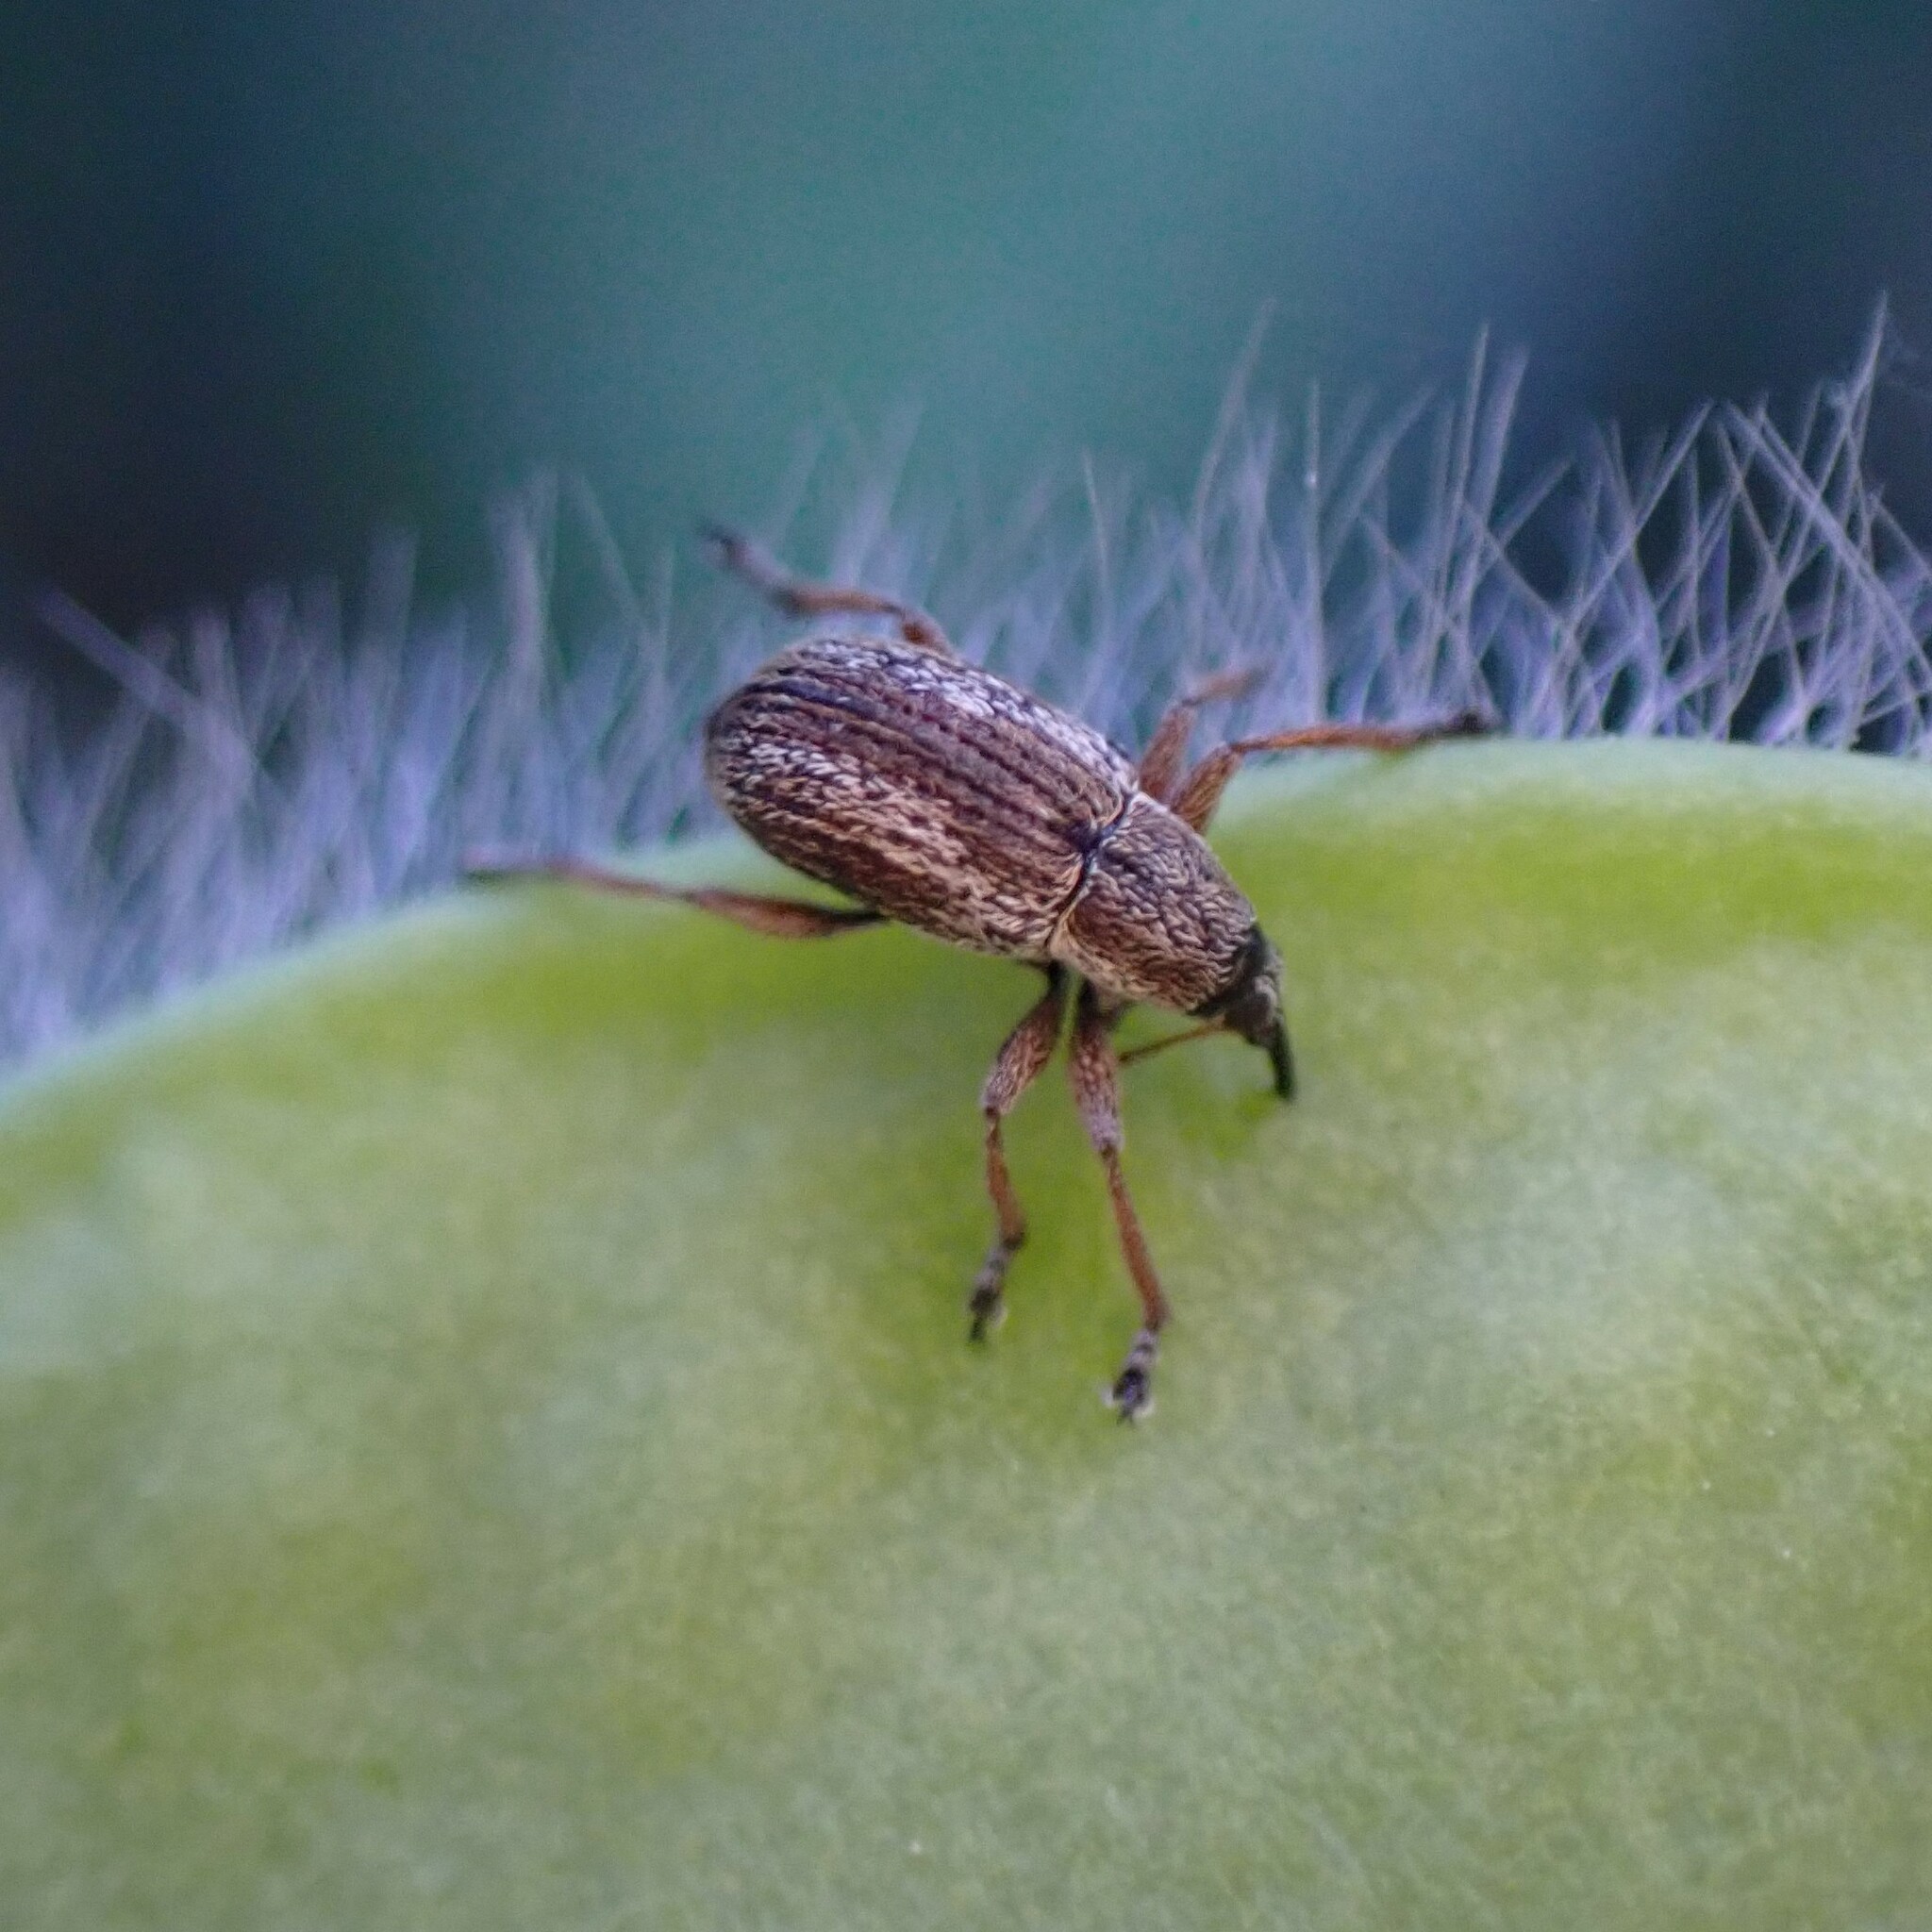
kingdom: Animalia
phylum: Arthropoda
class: Insecta
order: Coleoptera
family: Brentidae
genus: Exapion
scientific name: Exapion fuscirostre
